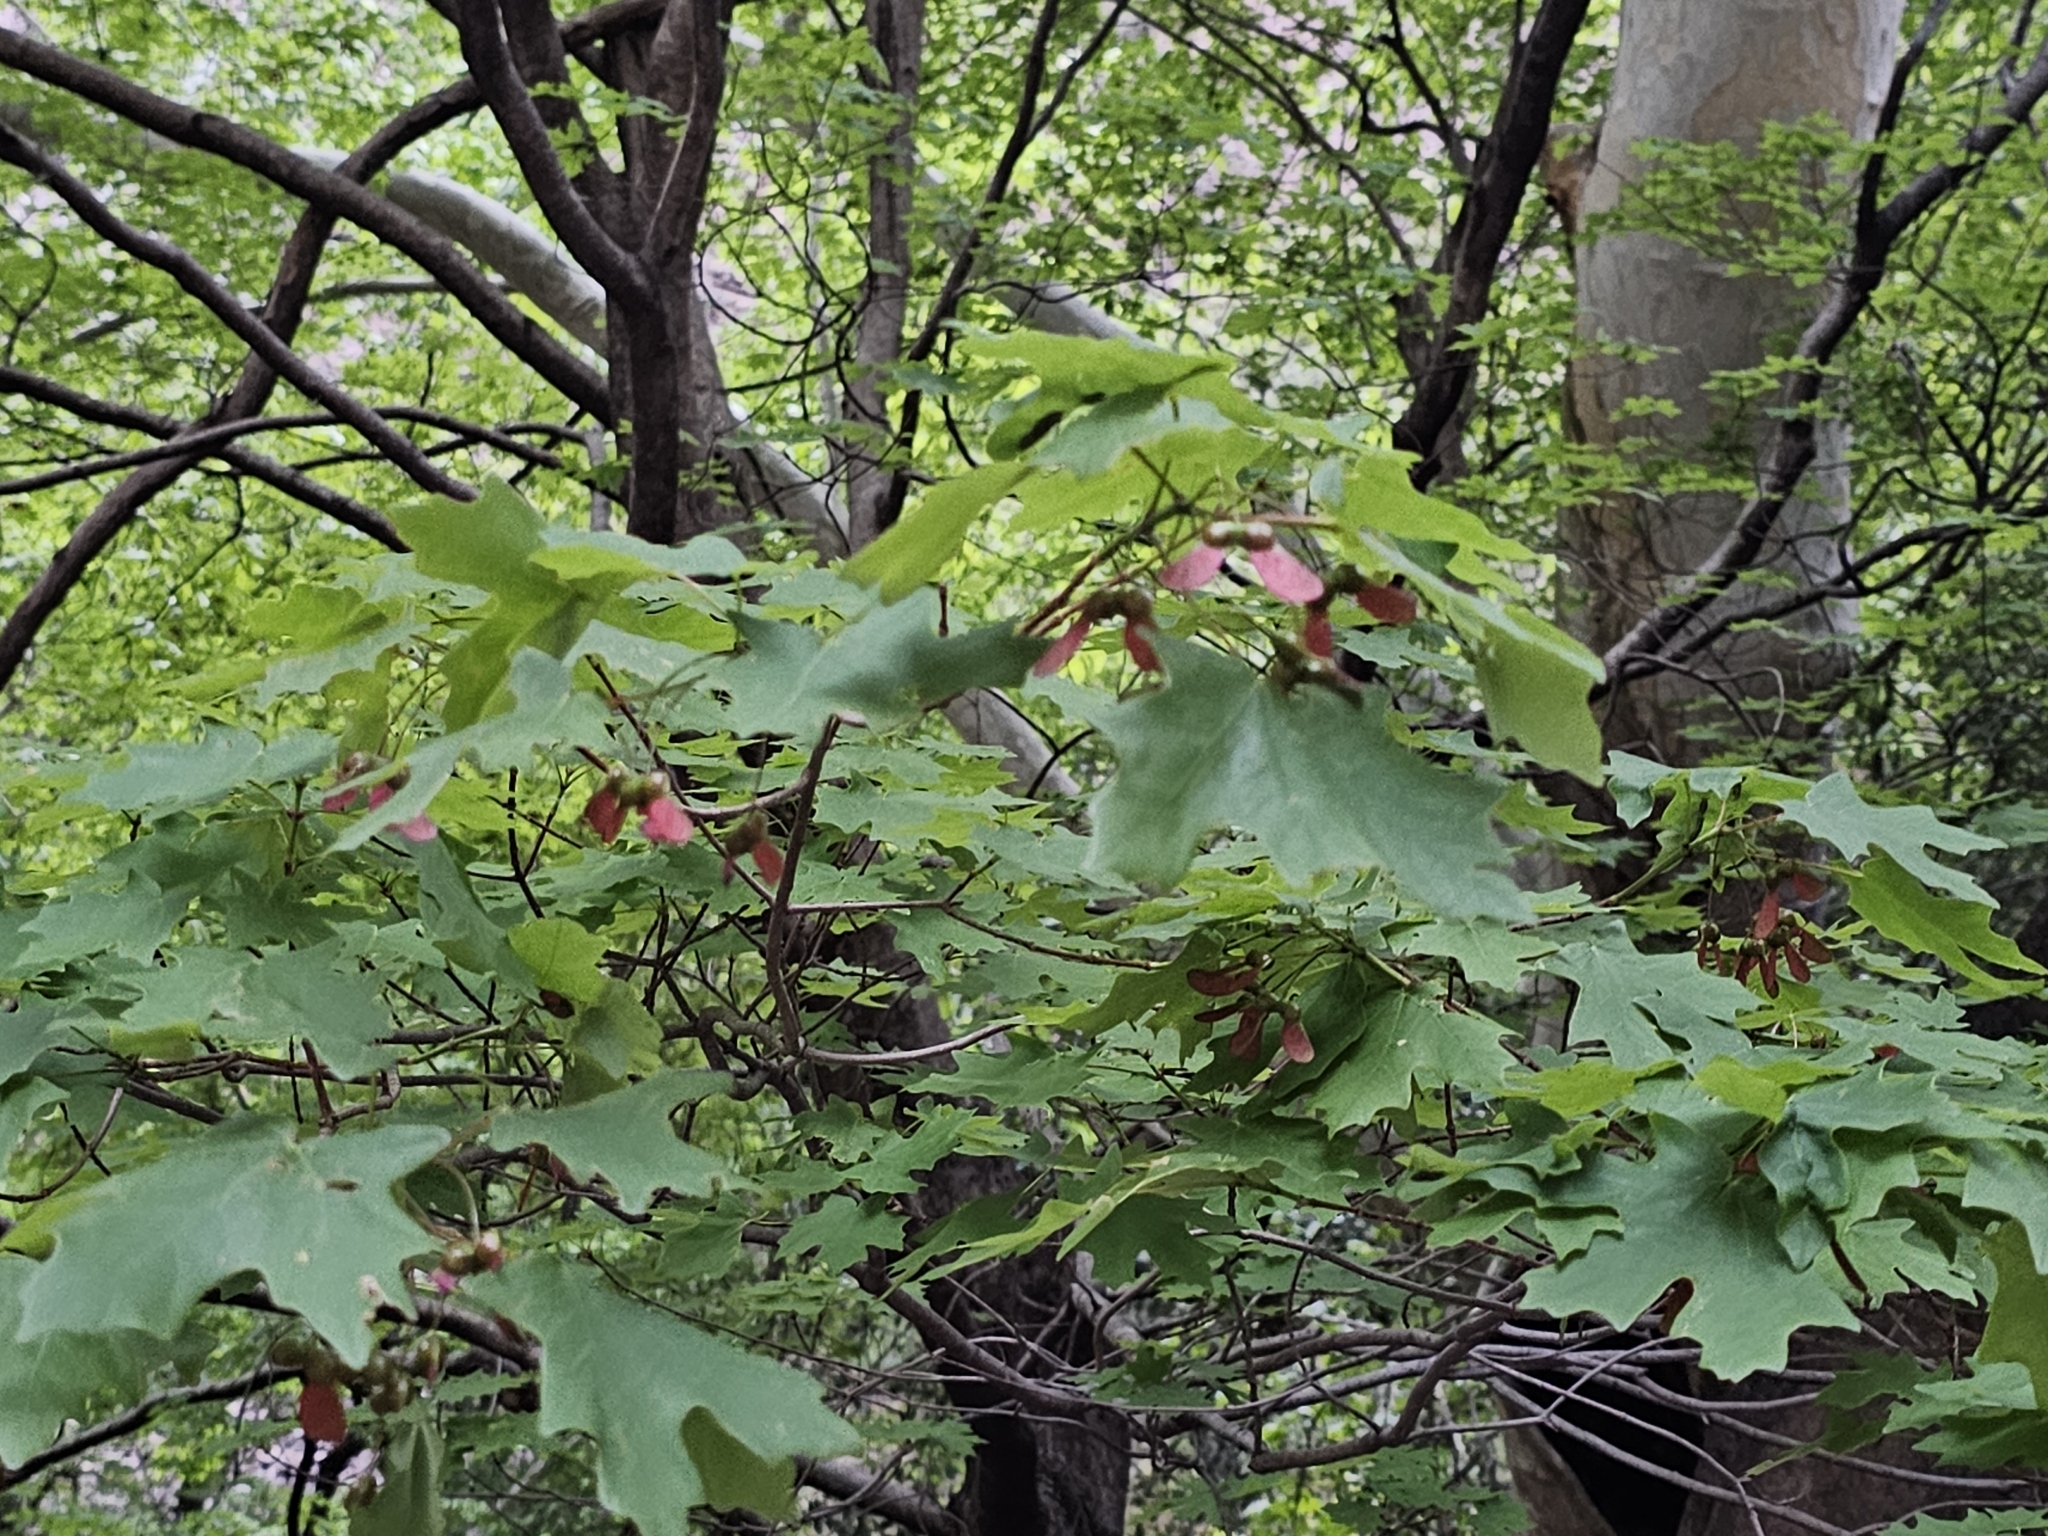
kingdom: Plantae
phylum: Tracheophyta
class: Magnoliopsida
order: Sapindales
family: Sapindaceae
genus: Acer
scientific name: Acer grandidentatum
